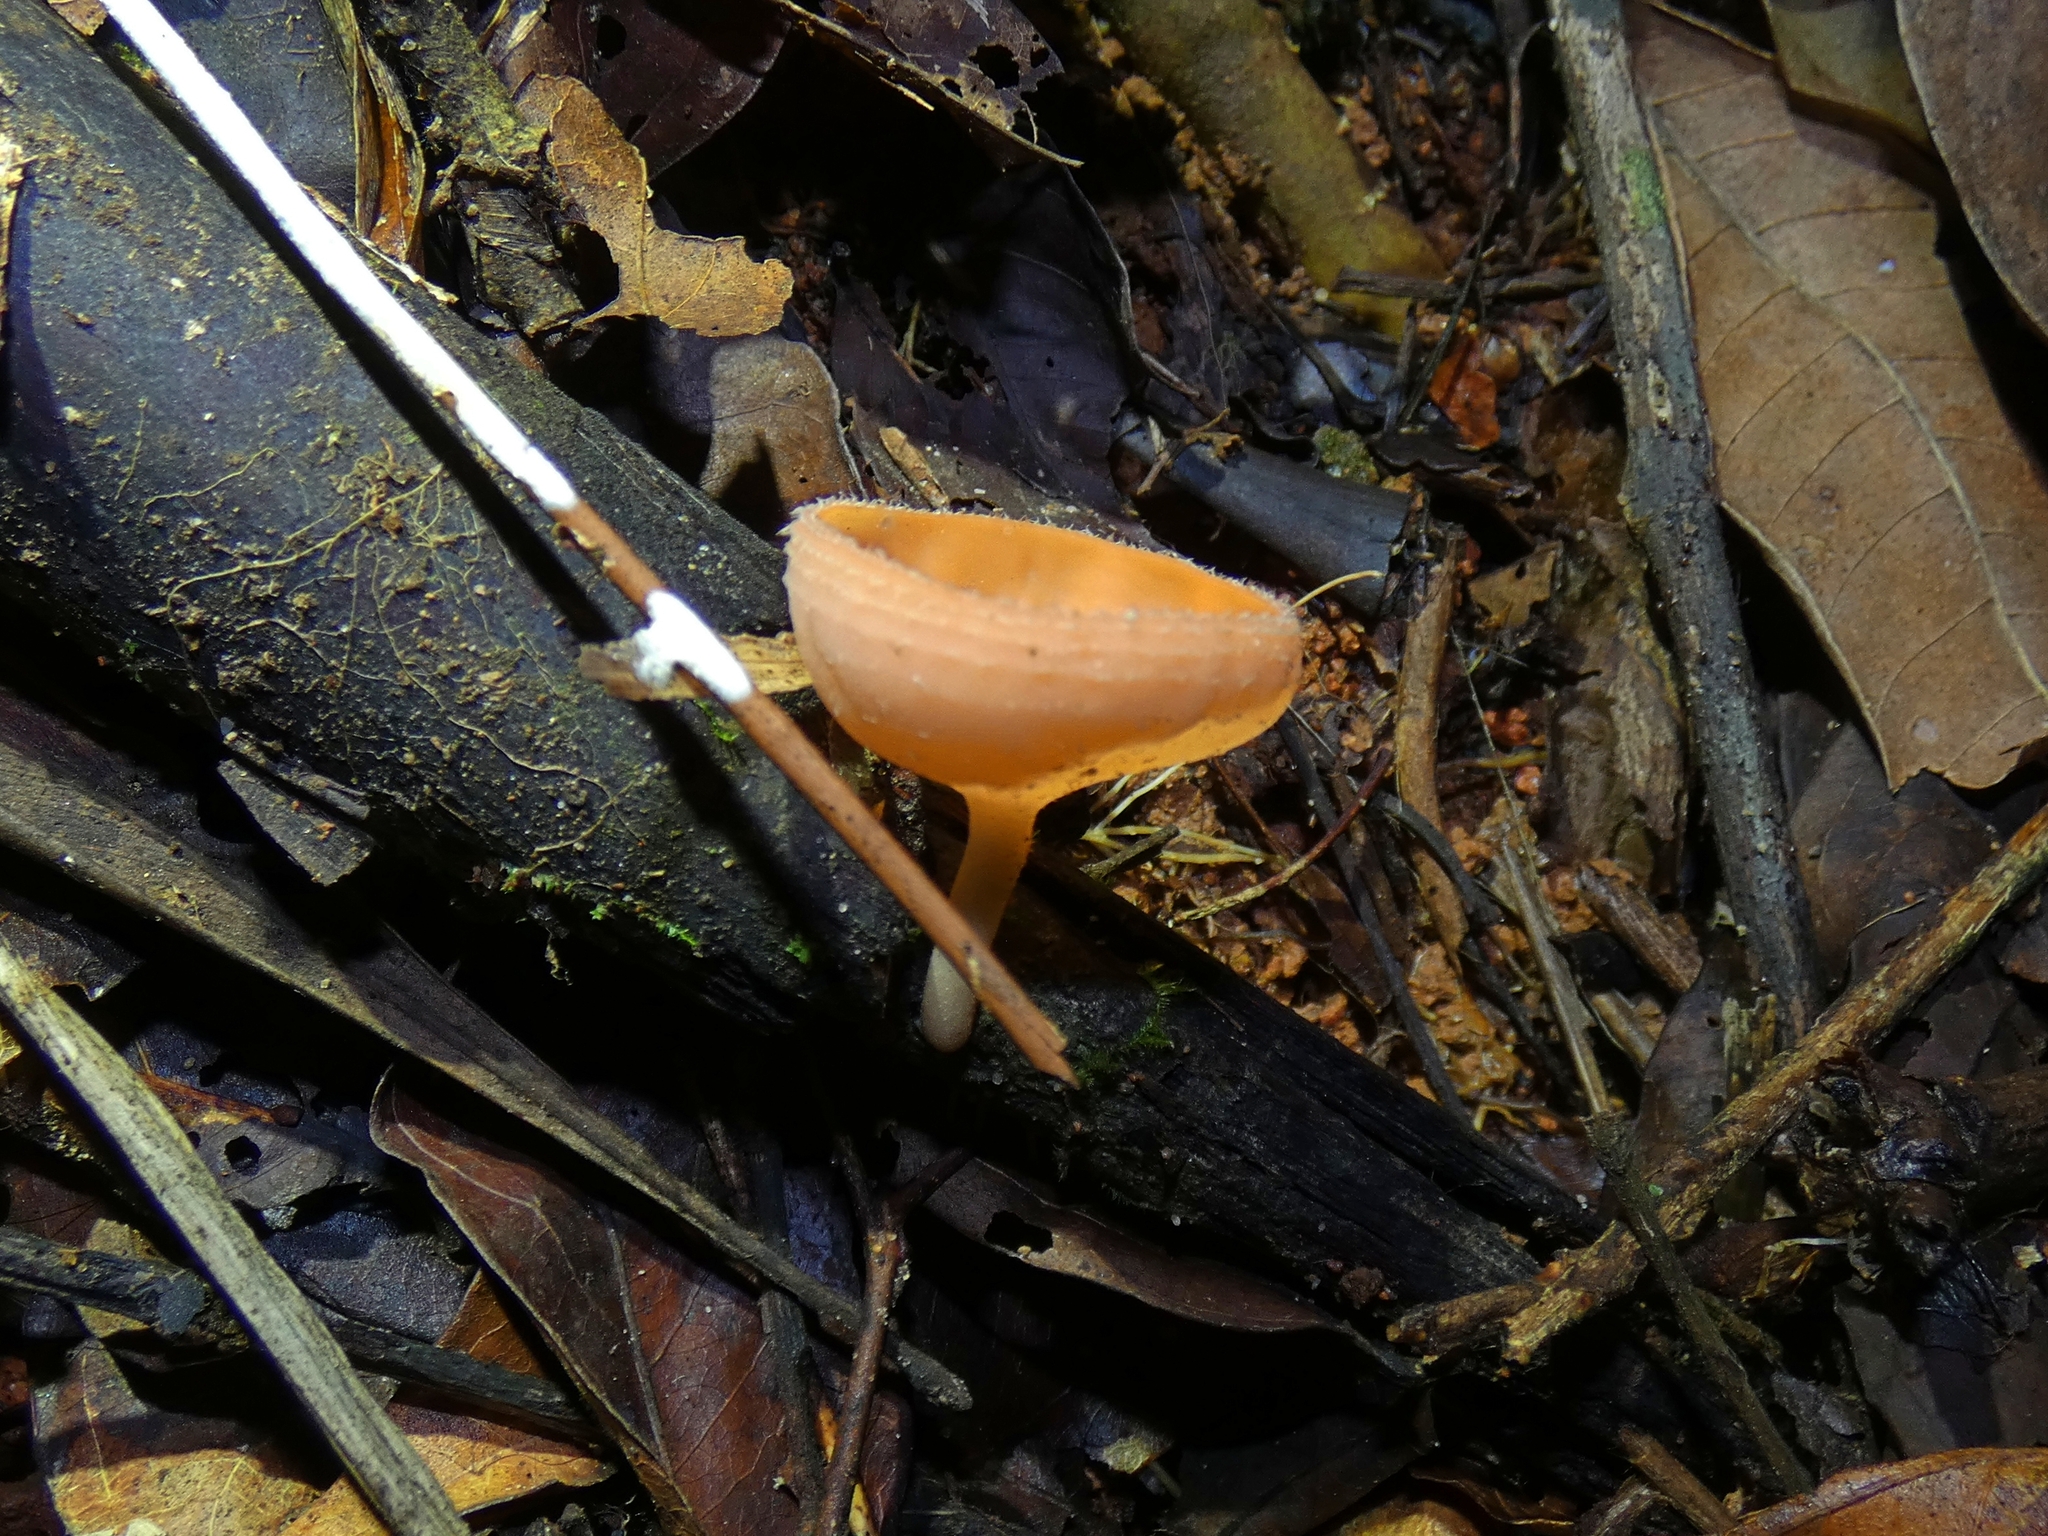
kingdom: Fungi
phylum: Ascomycota
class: Pezizomycetes
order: Pezizales
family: Sarcoscyphaceae
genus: Cookeina
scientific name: Cookeina tricholoma
